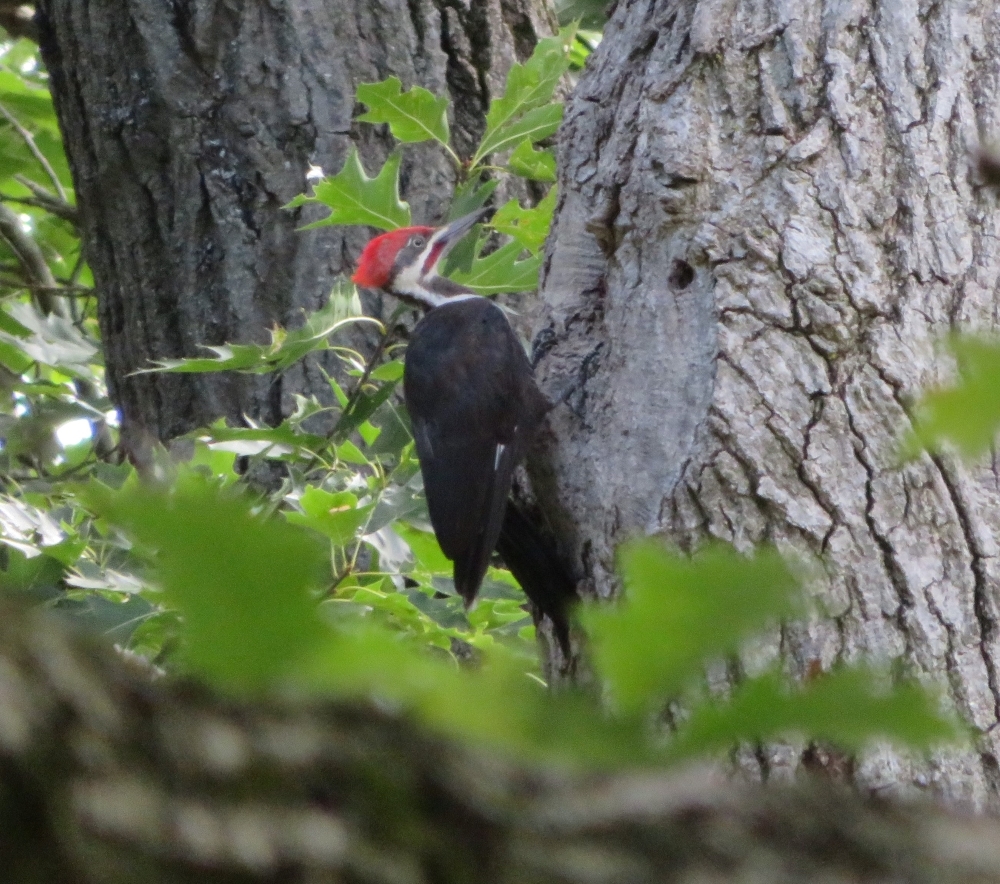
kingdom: Animalia
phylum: Chordata
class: Aves
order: Piciformes
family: Picidae
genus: Dryocopus
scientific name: Dryocopus pileatus
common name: Pileated woodpecker
